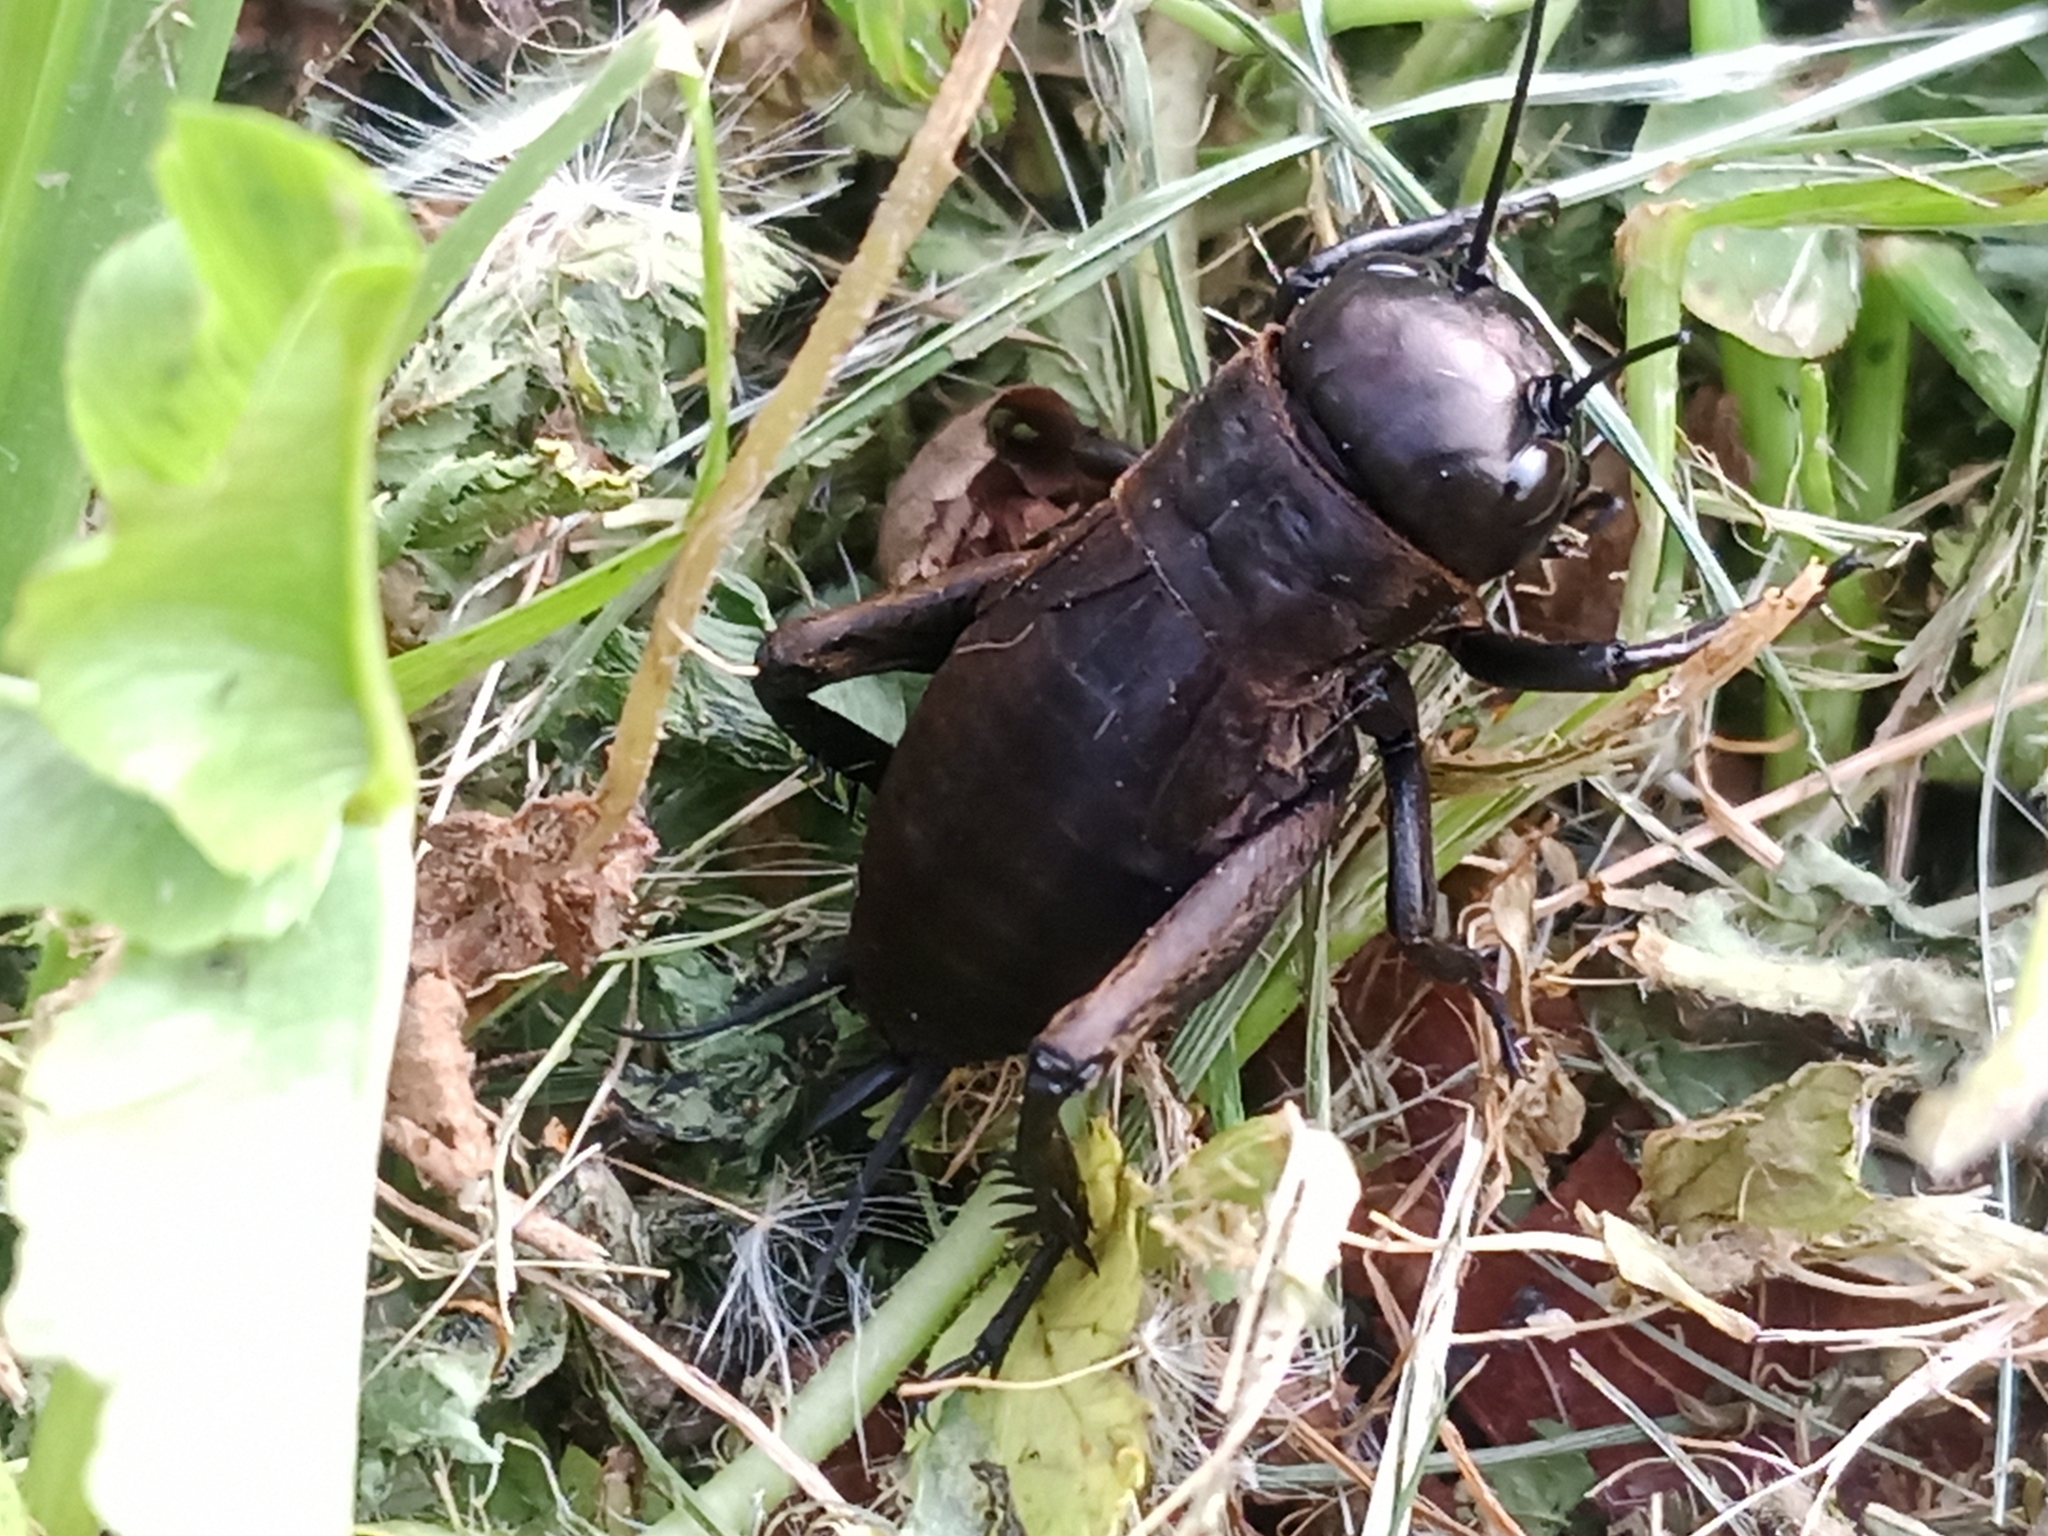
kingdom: Animalia
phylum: Arthropoda
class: Insecta
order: Orthoptera
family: Gryllidae
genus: Gryllus
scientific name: Gryllus campestris
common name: Field cricket
